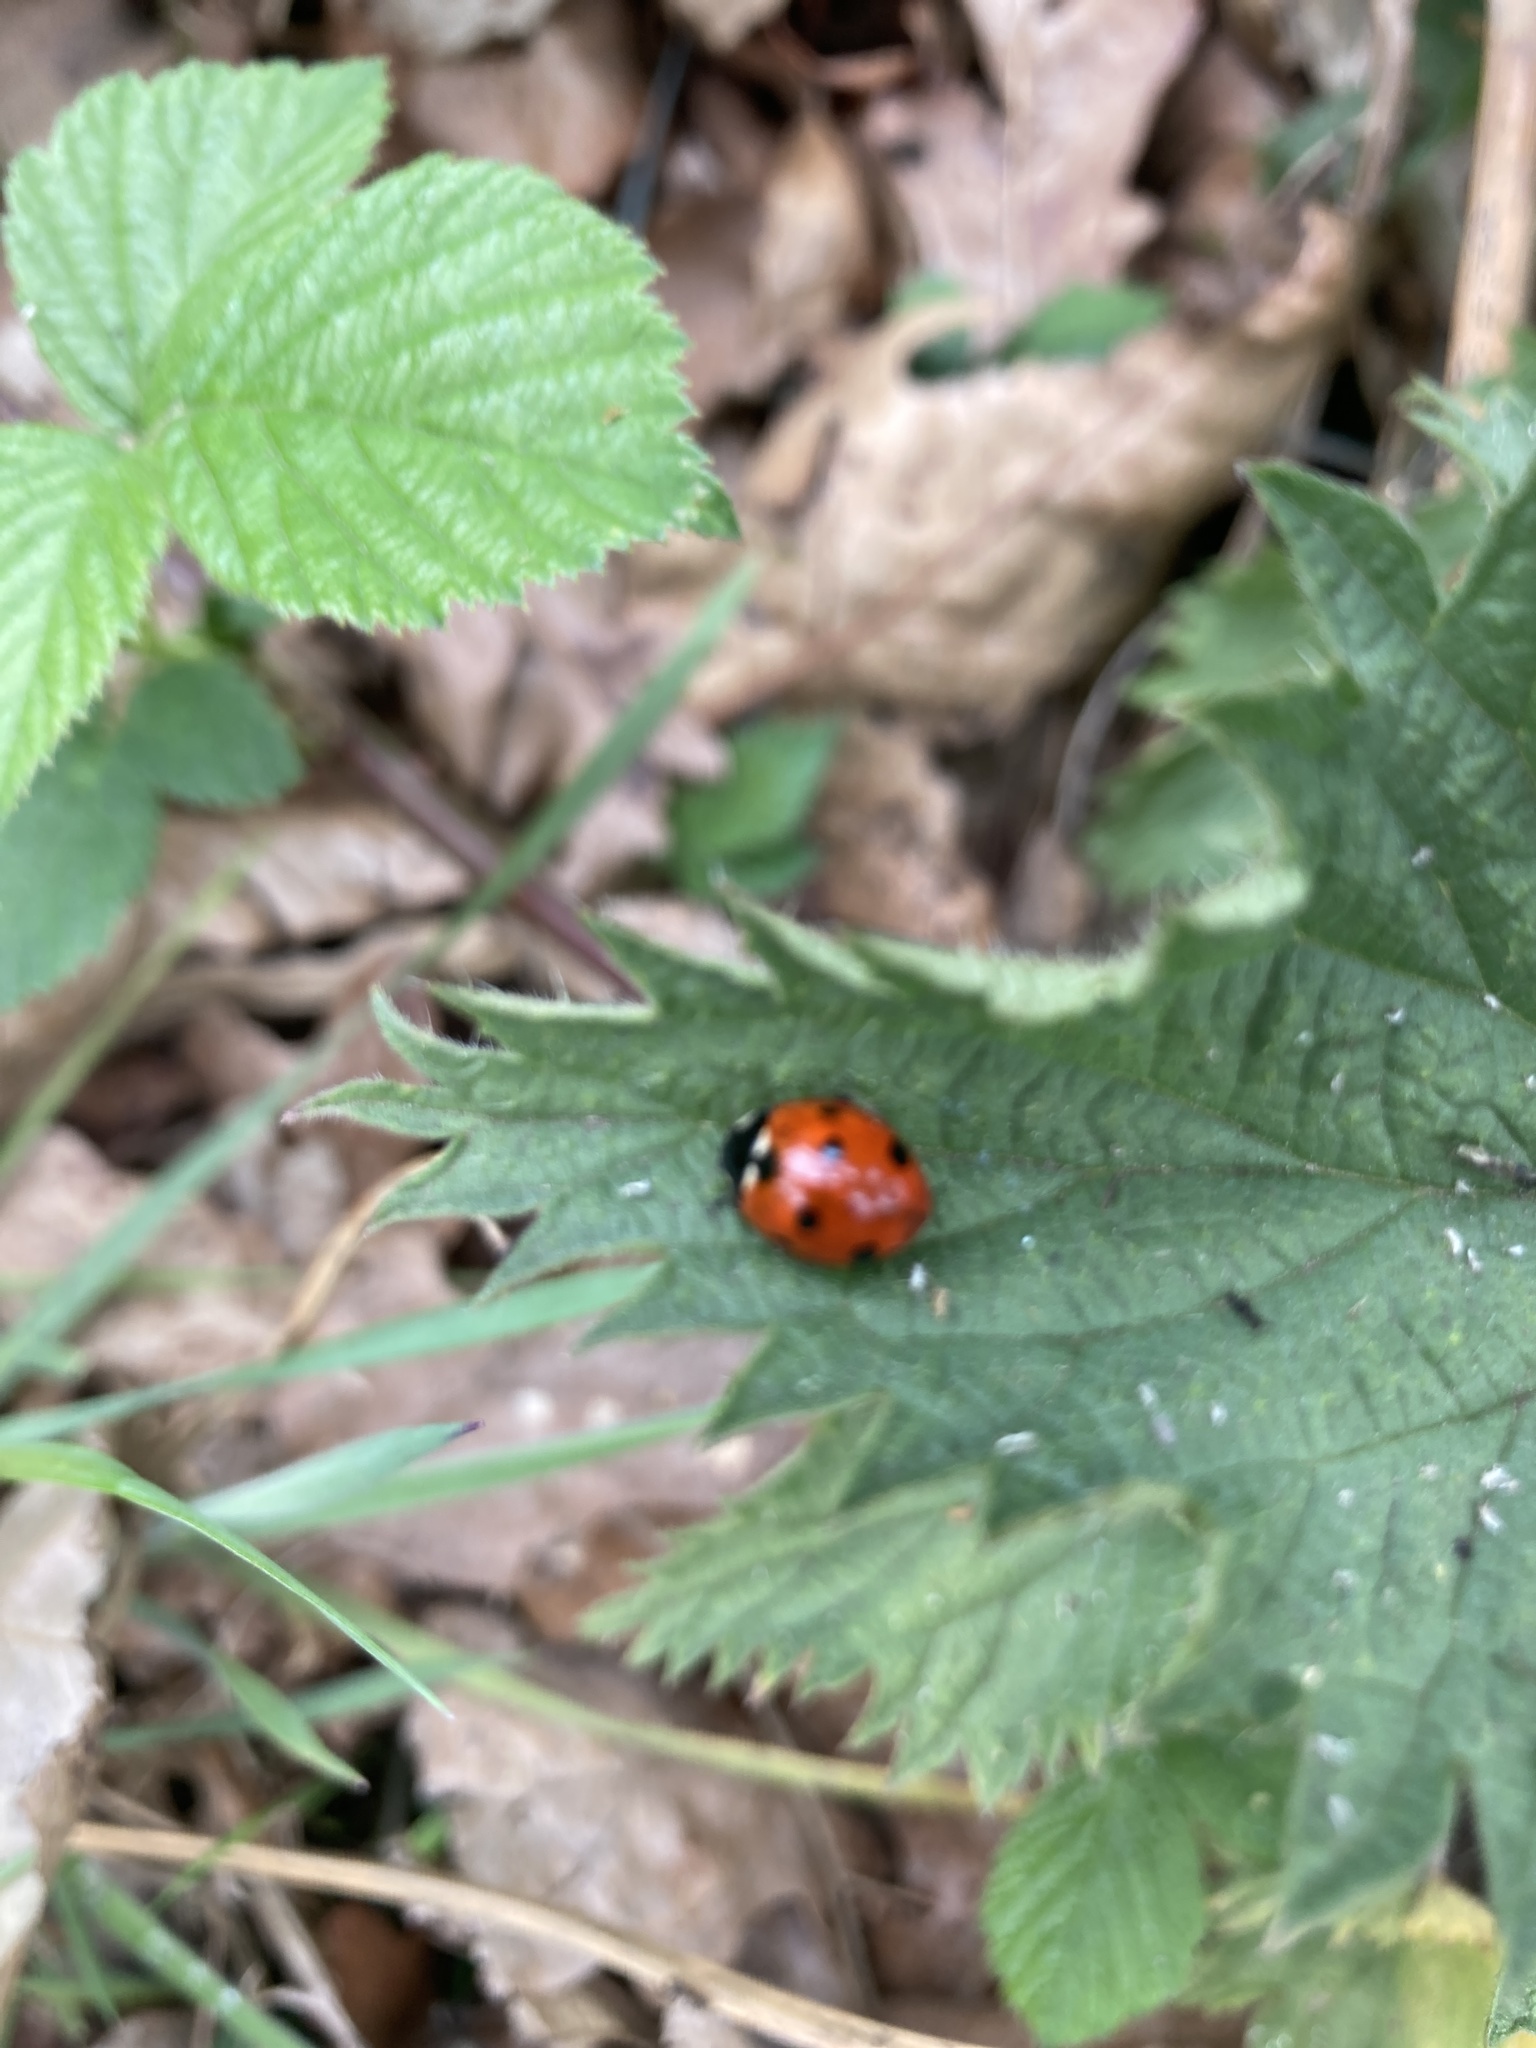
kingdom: Animalia
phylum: Arthropoda
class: Insecta
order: Coleoptera
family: Coccinellidae
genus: Coccinella
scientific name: Coccinella septempunctata
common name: Sevenspotted lady beetle
